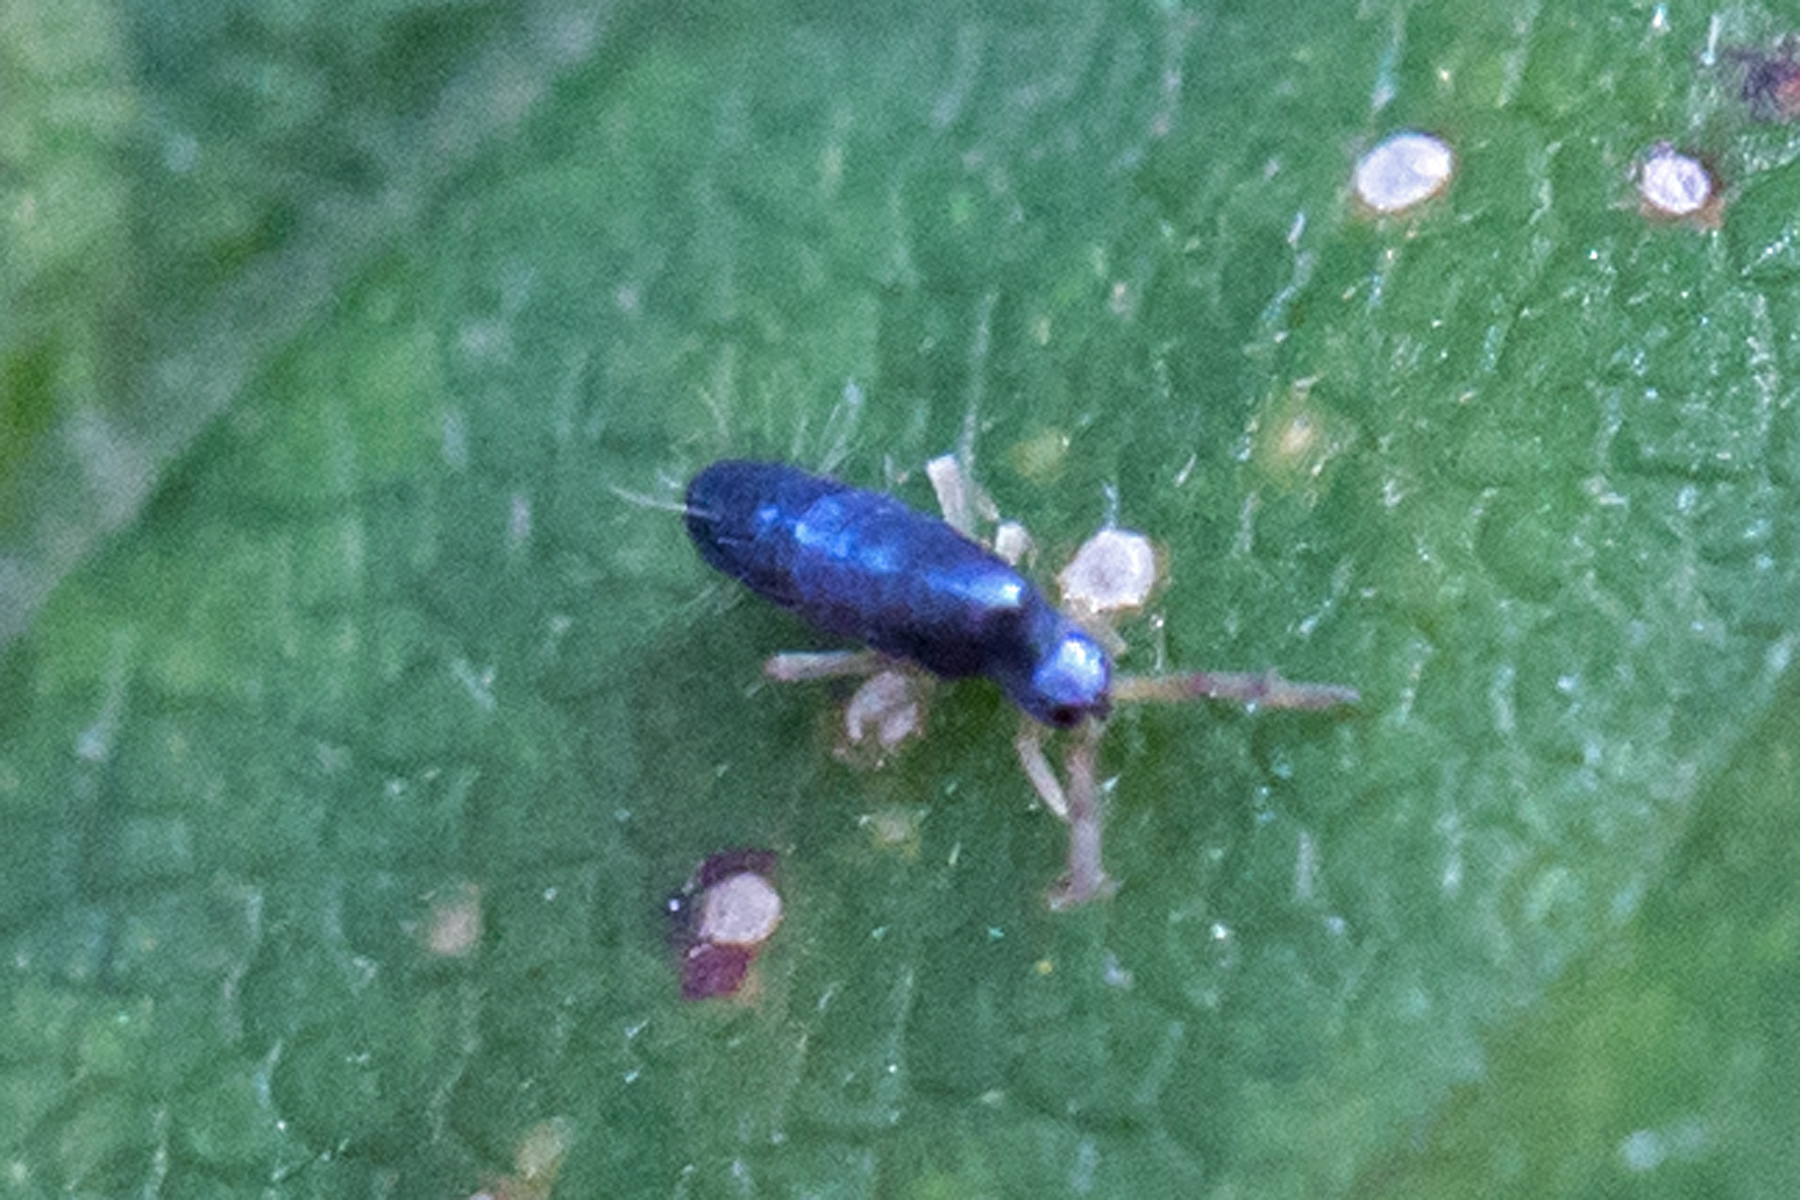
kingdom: Animalia
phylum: Arthropoda
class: Collembola
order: Entomobryomorpha
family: Entomobryidae
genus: Lepidocyrtus
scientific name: Lepidocyrtus paradoxus
